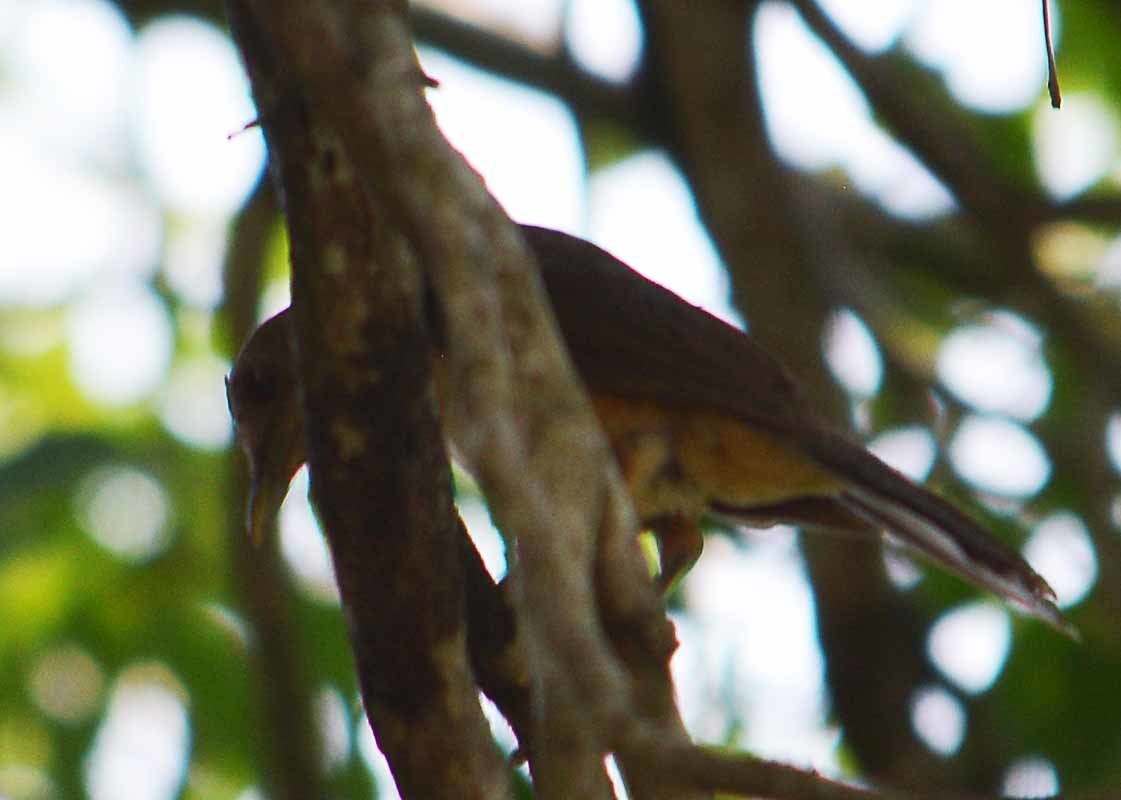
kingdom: Animalia
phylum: Chordata
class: Aves
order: Passeriformes
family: Turdidae
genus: Turdus
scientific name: Turdus grayi
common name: Clay-colored thrush
